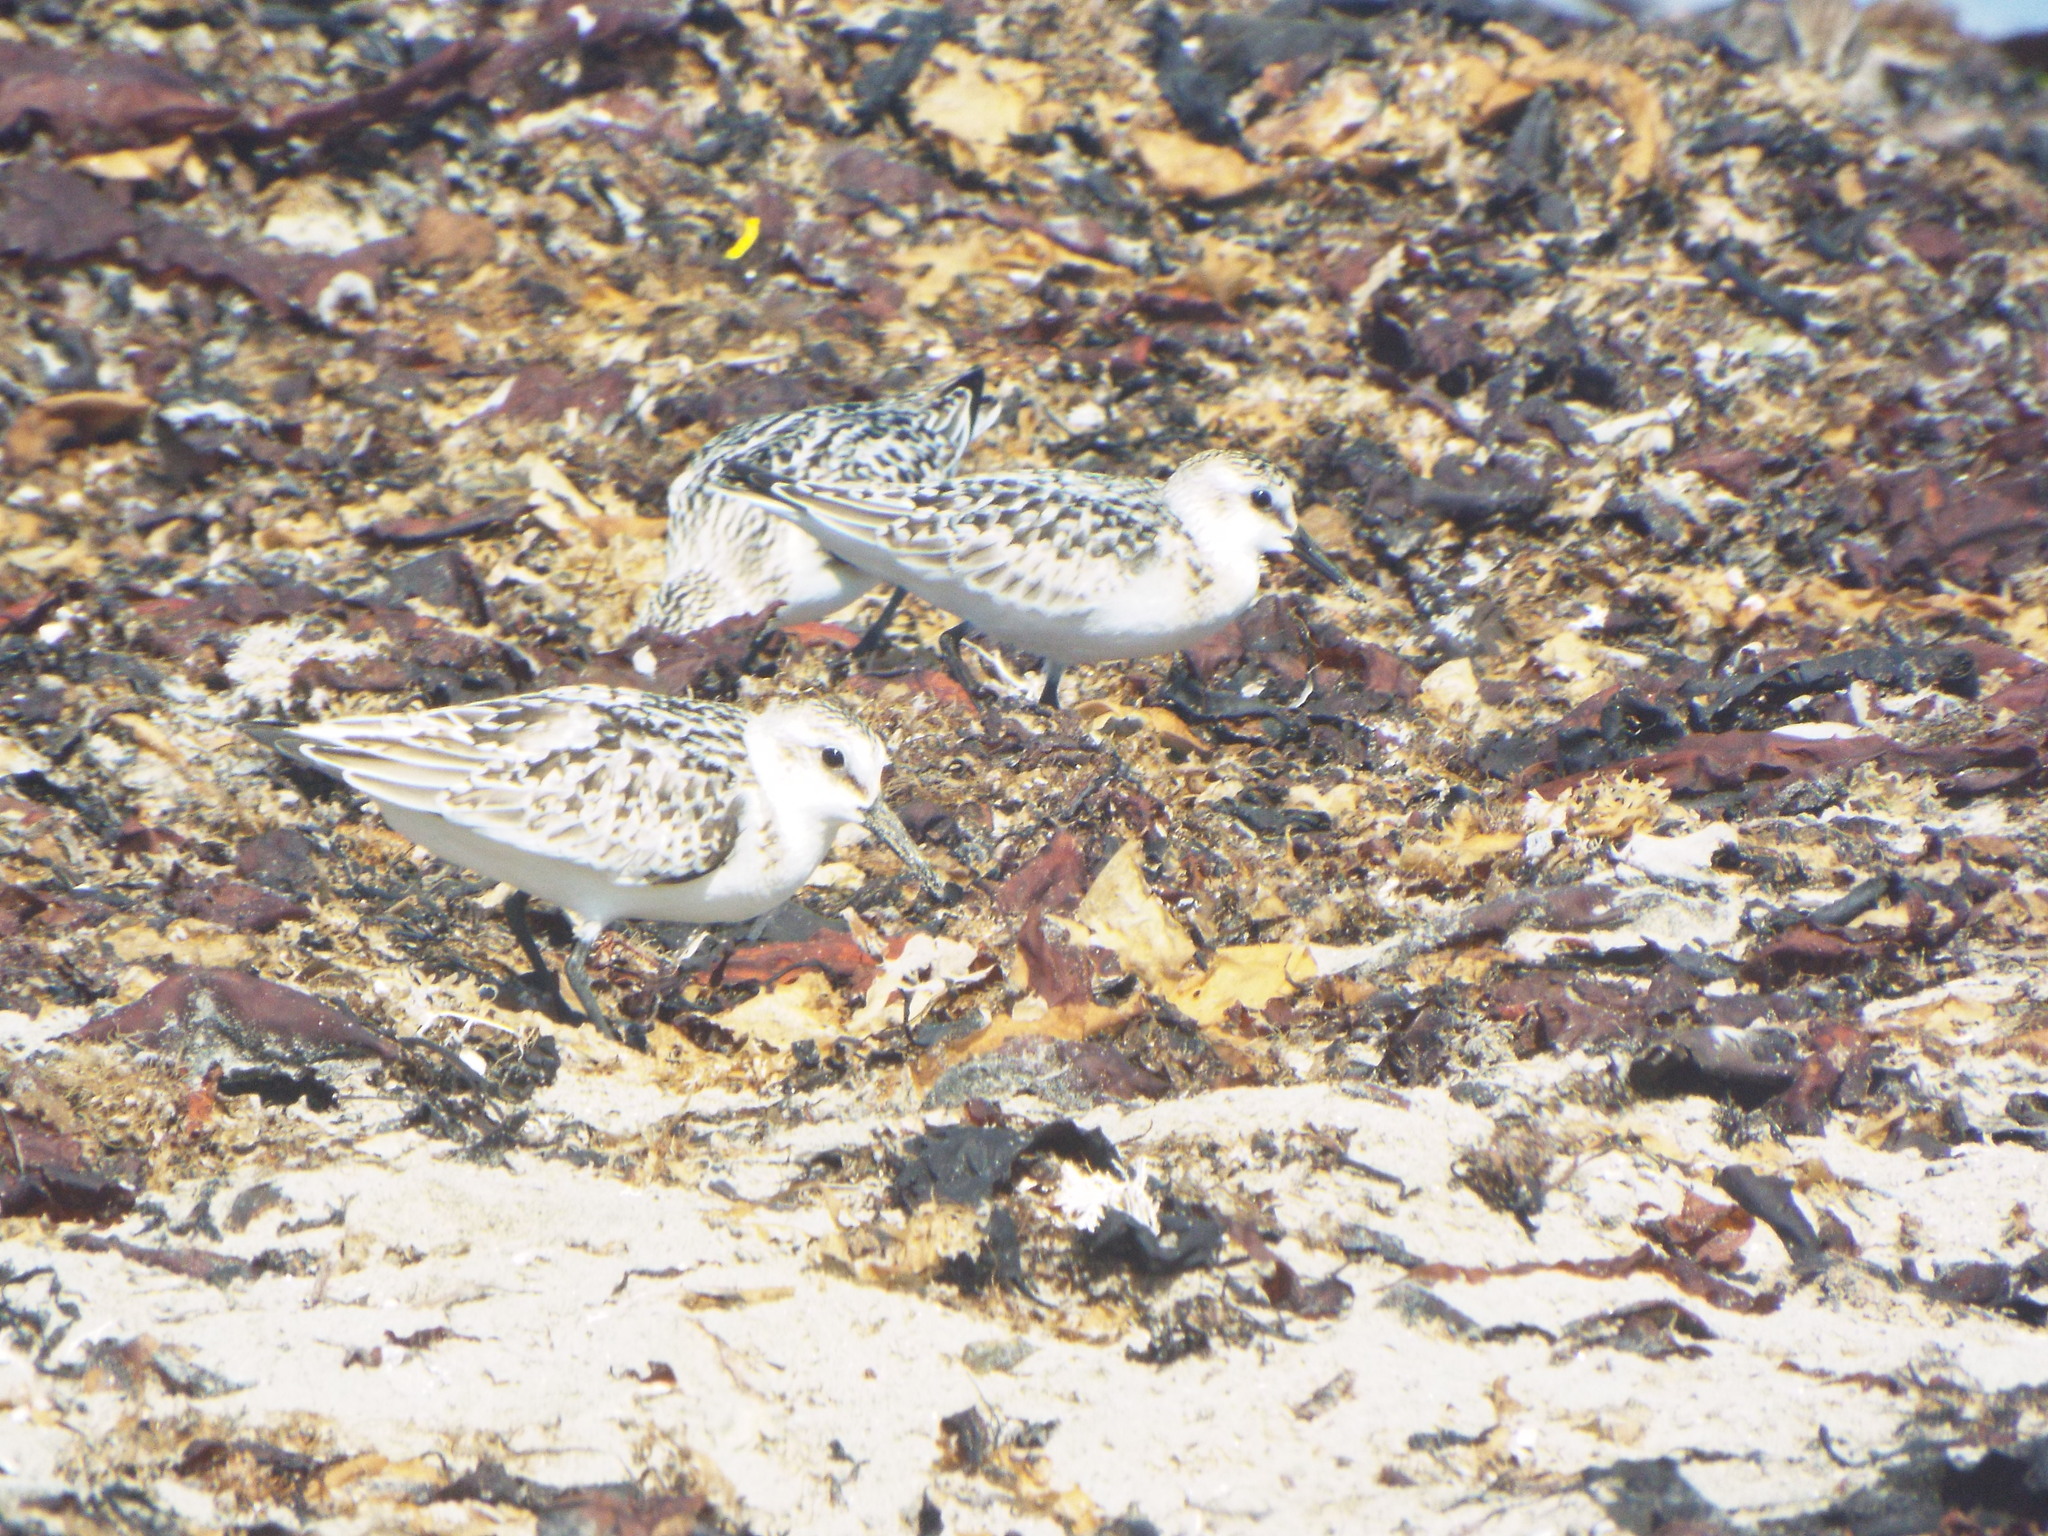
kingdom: Animalia
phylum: Chordata
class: Aves
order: Charadriiformes
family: Scolopacidae
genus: Calidris
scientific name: Calidris alba
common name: Sanderling
